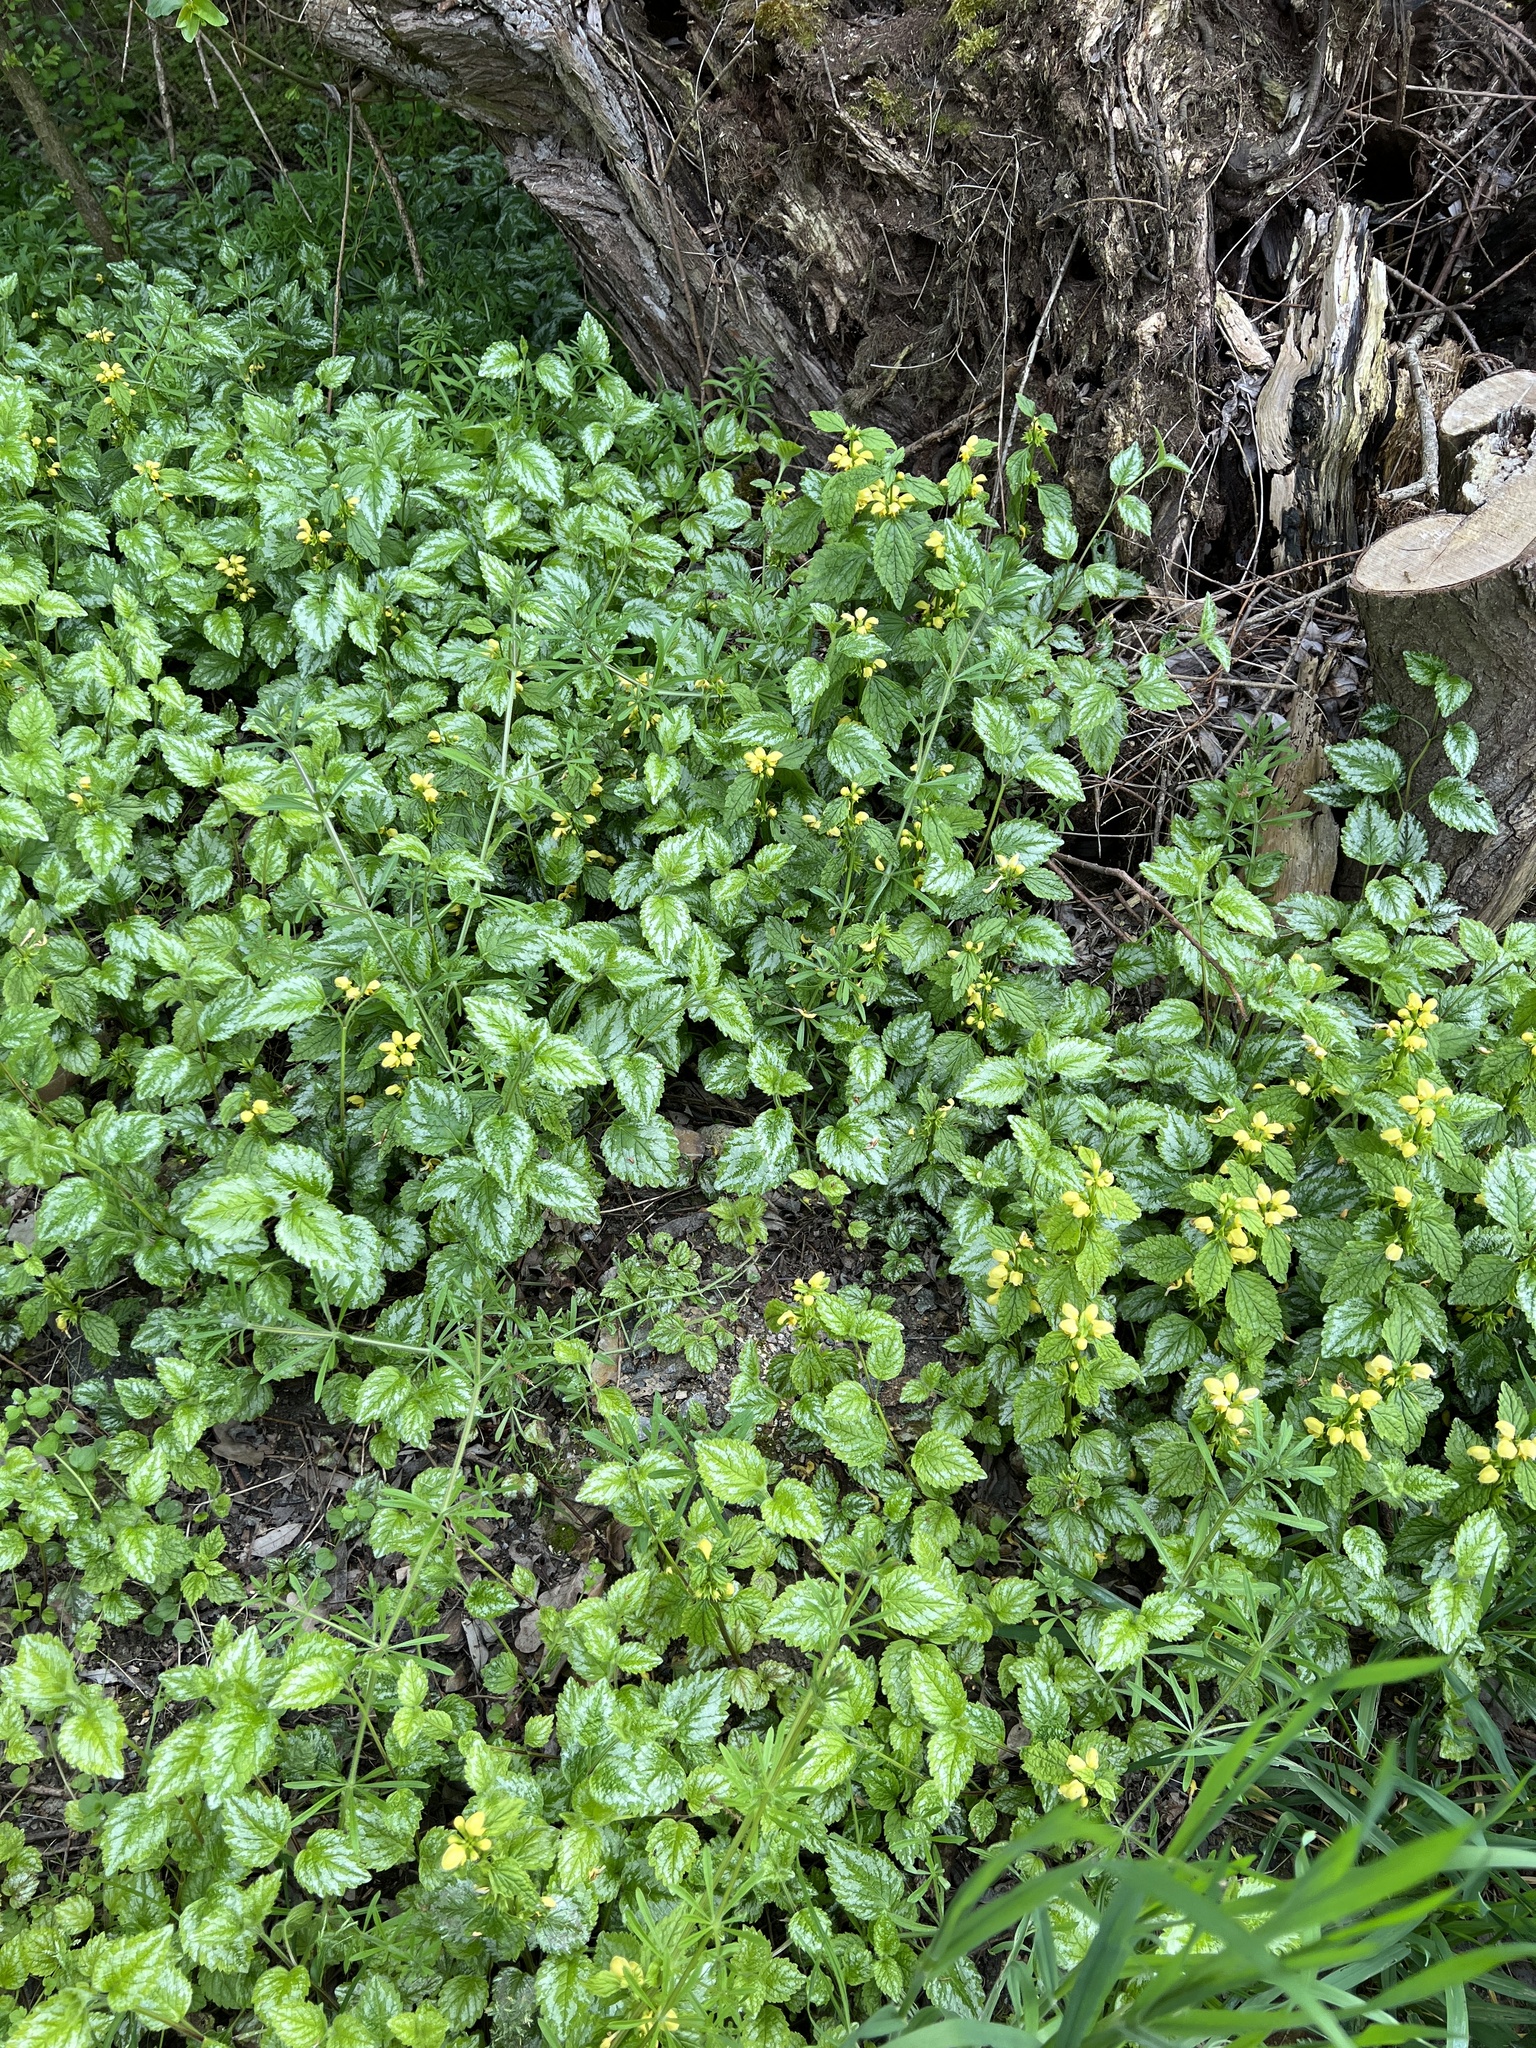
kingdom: Plantae
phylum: Tracheophyta
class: Magnoliopsida
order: Lamiales
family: Lamiaceae
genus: Lamium
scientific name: Lamium galeobdolon
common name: Yellow archangel
